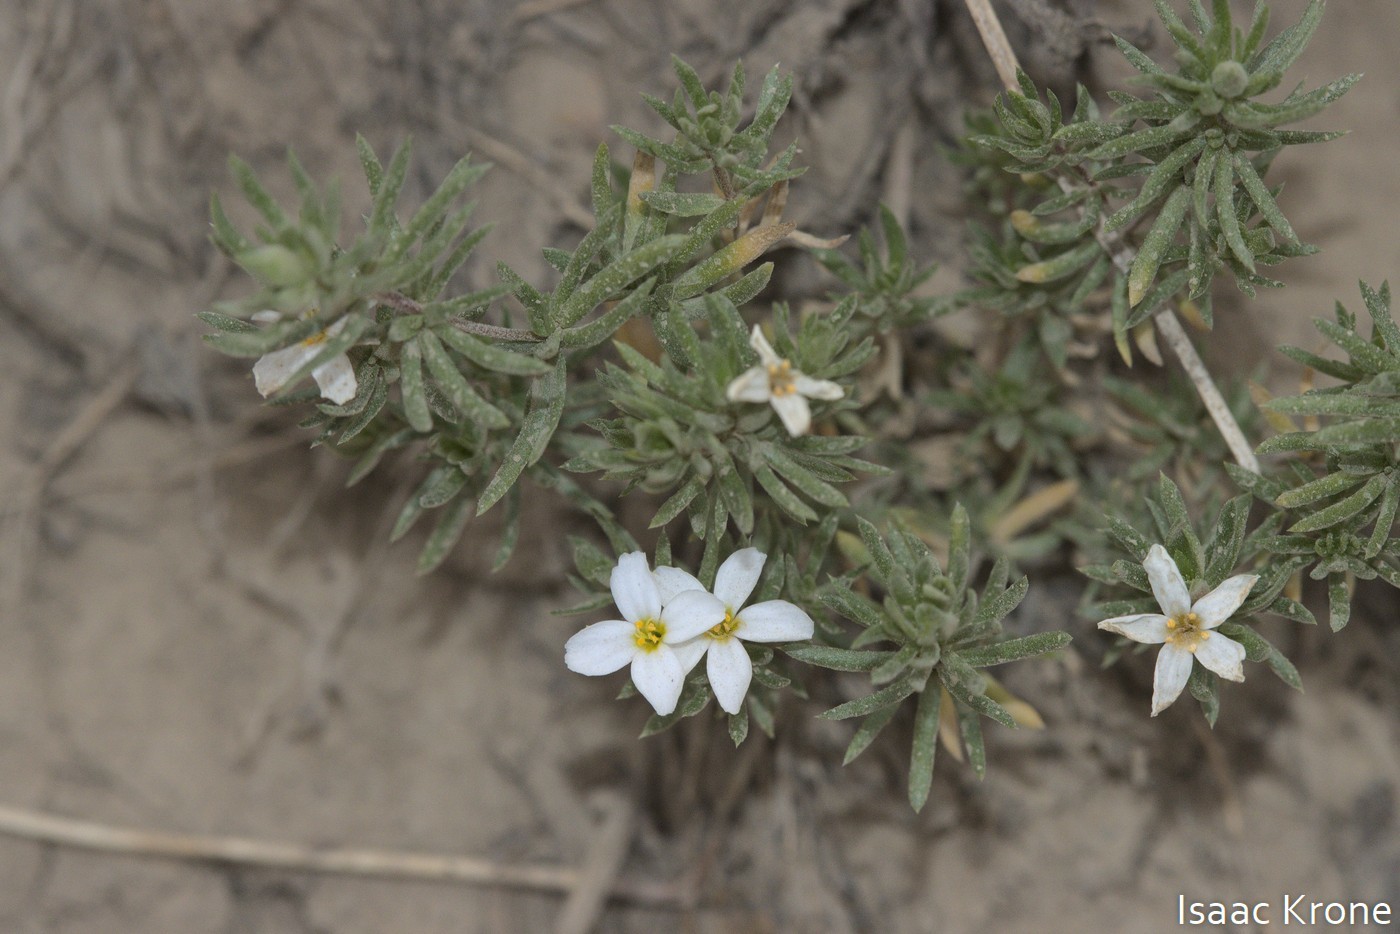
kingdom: Plantae
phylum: Tracheophyta
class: Magnoliopsida
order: Ericales
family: Polemoniaceae
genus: Leptosiphon
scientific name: Leptosiphon nuttallii
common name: Nuttall's linanthus
